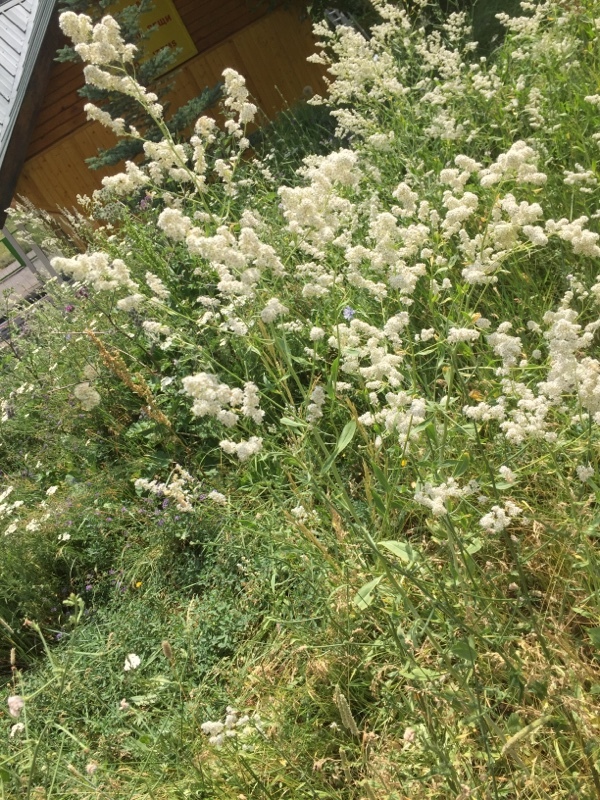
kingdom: Plantae
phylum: Tracheophyta
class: Magnoliopsida
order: Brassicales
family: Brassicaceae
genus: Lepidium
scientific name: Lepidium latifolium
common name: Dittander
